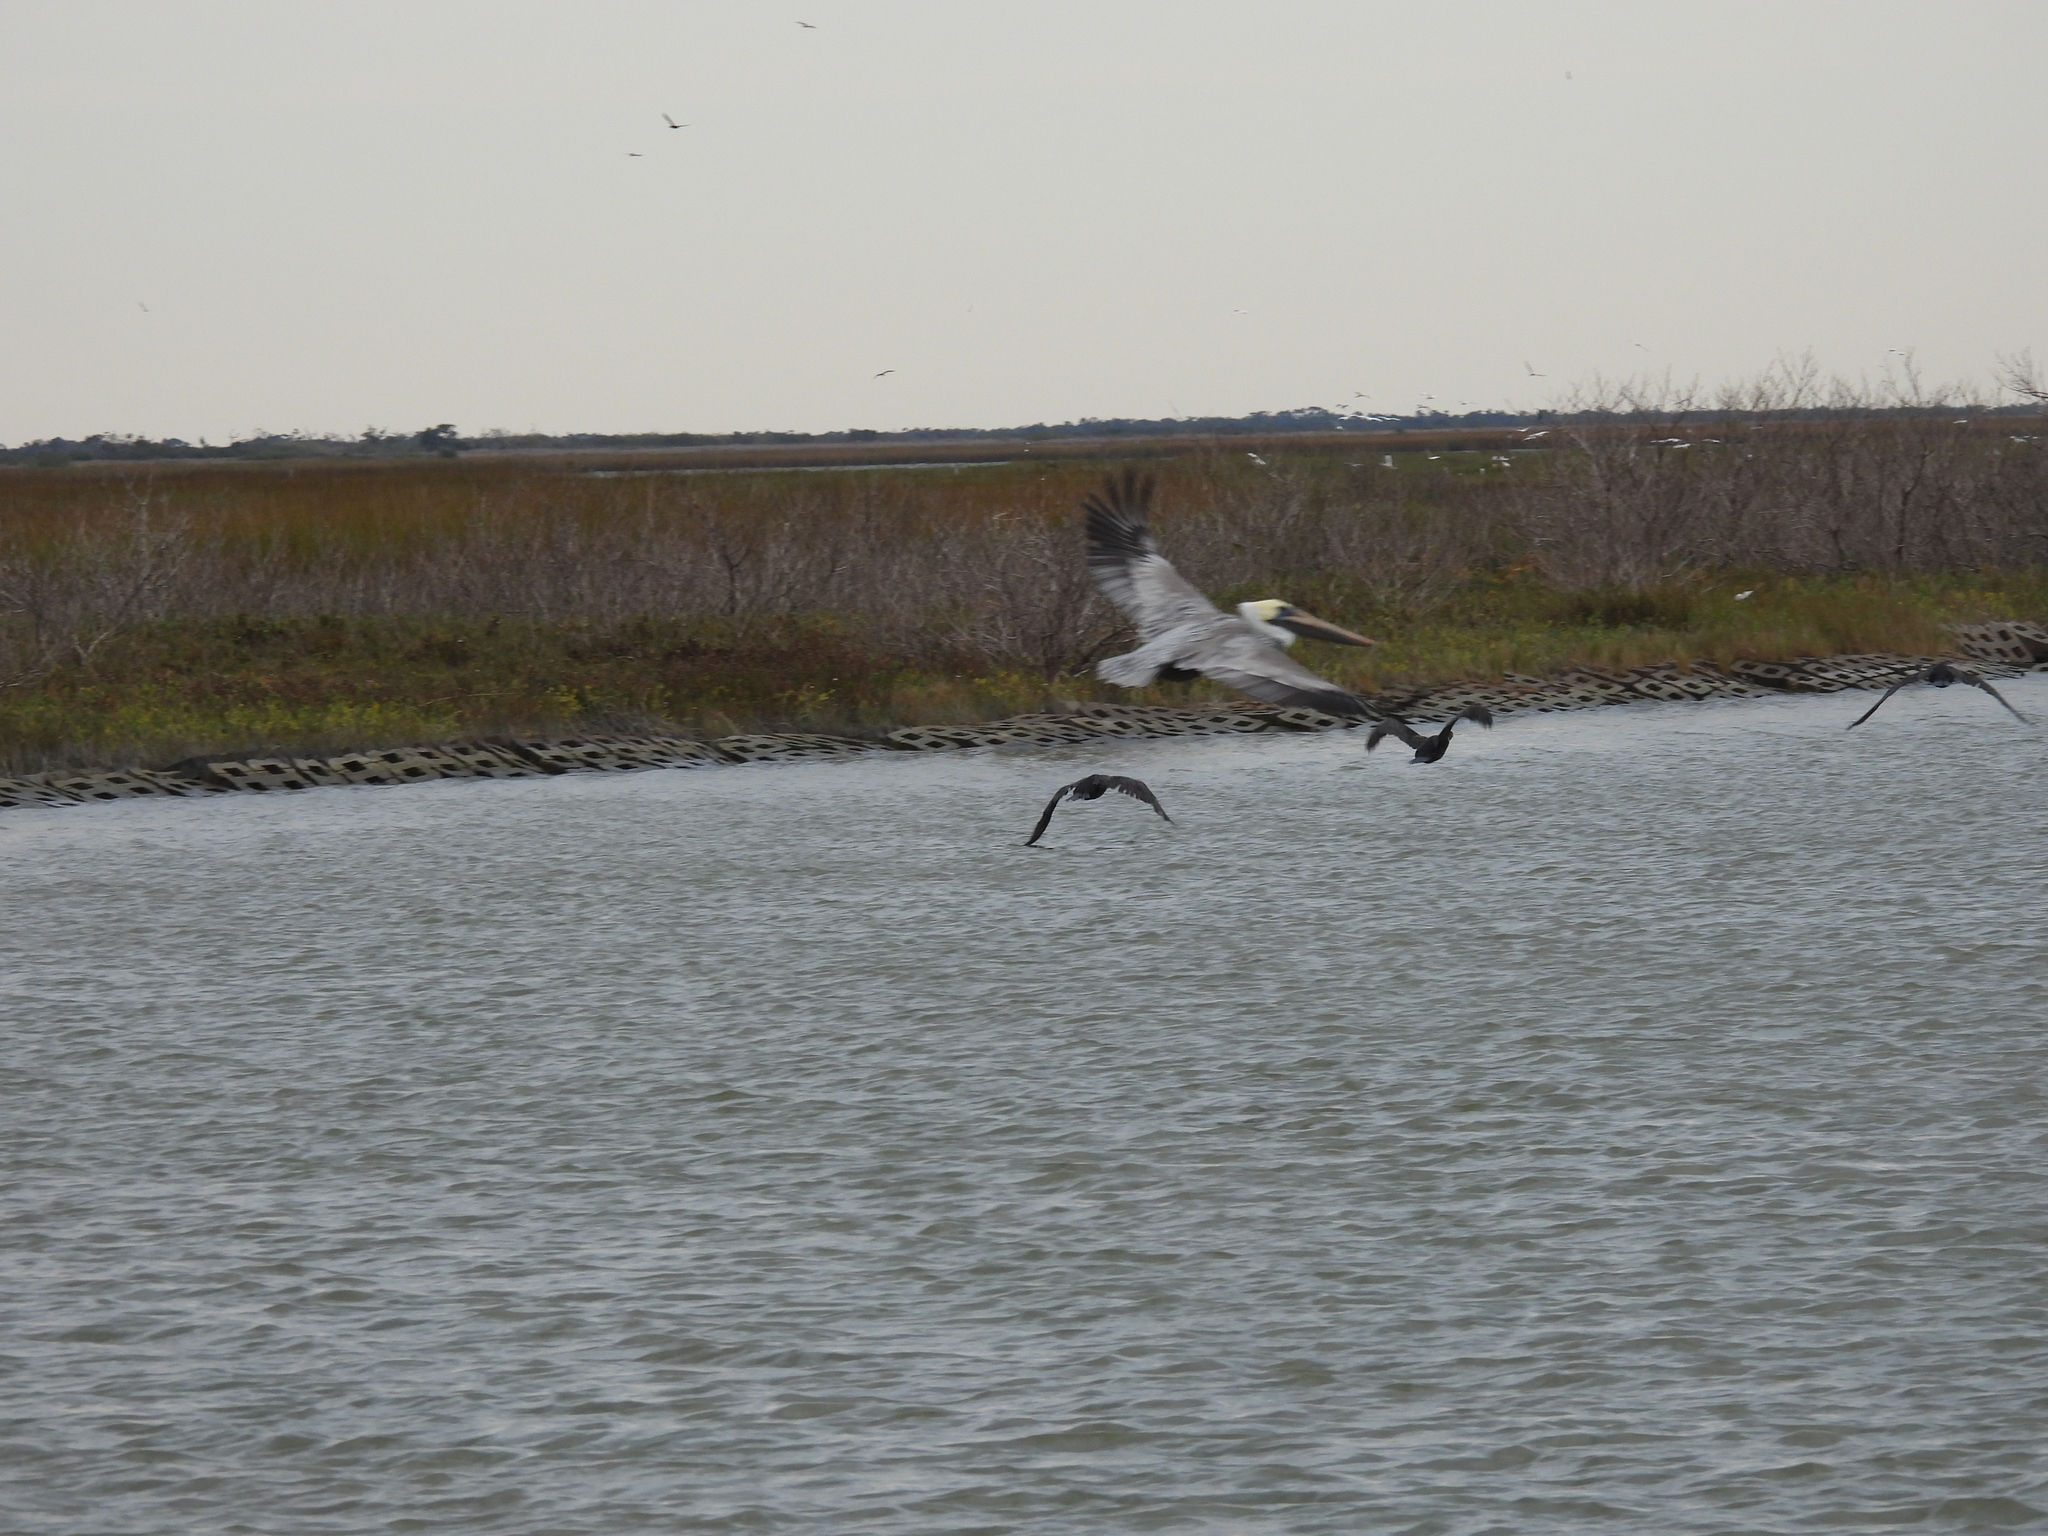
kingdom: Animalia
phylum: Chordata
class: Aves
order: Pelecaniformes
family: Pelecanidae
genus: Pelecanus
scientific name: Pelecanus occidentalis
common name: Brown pelican
